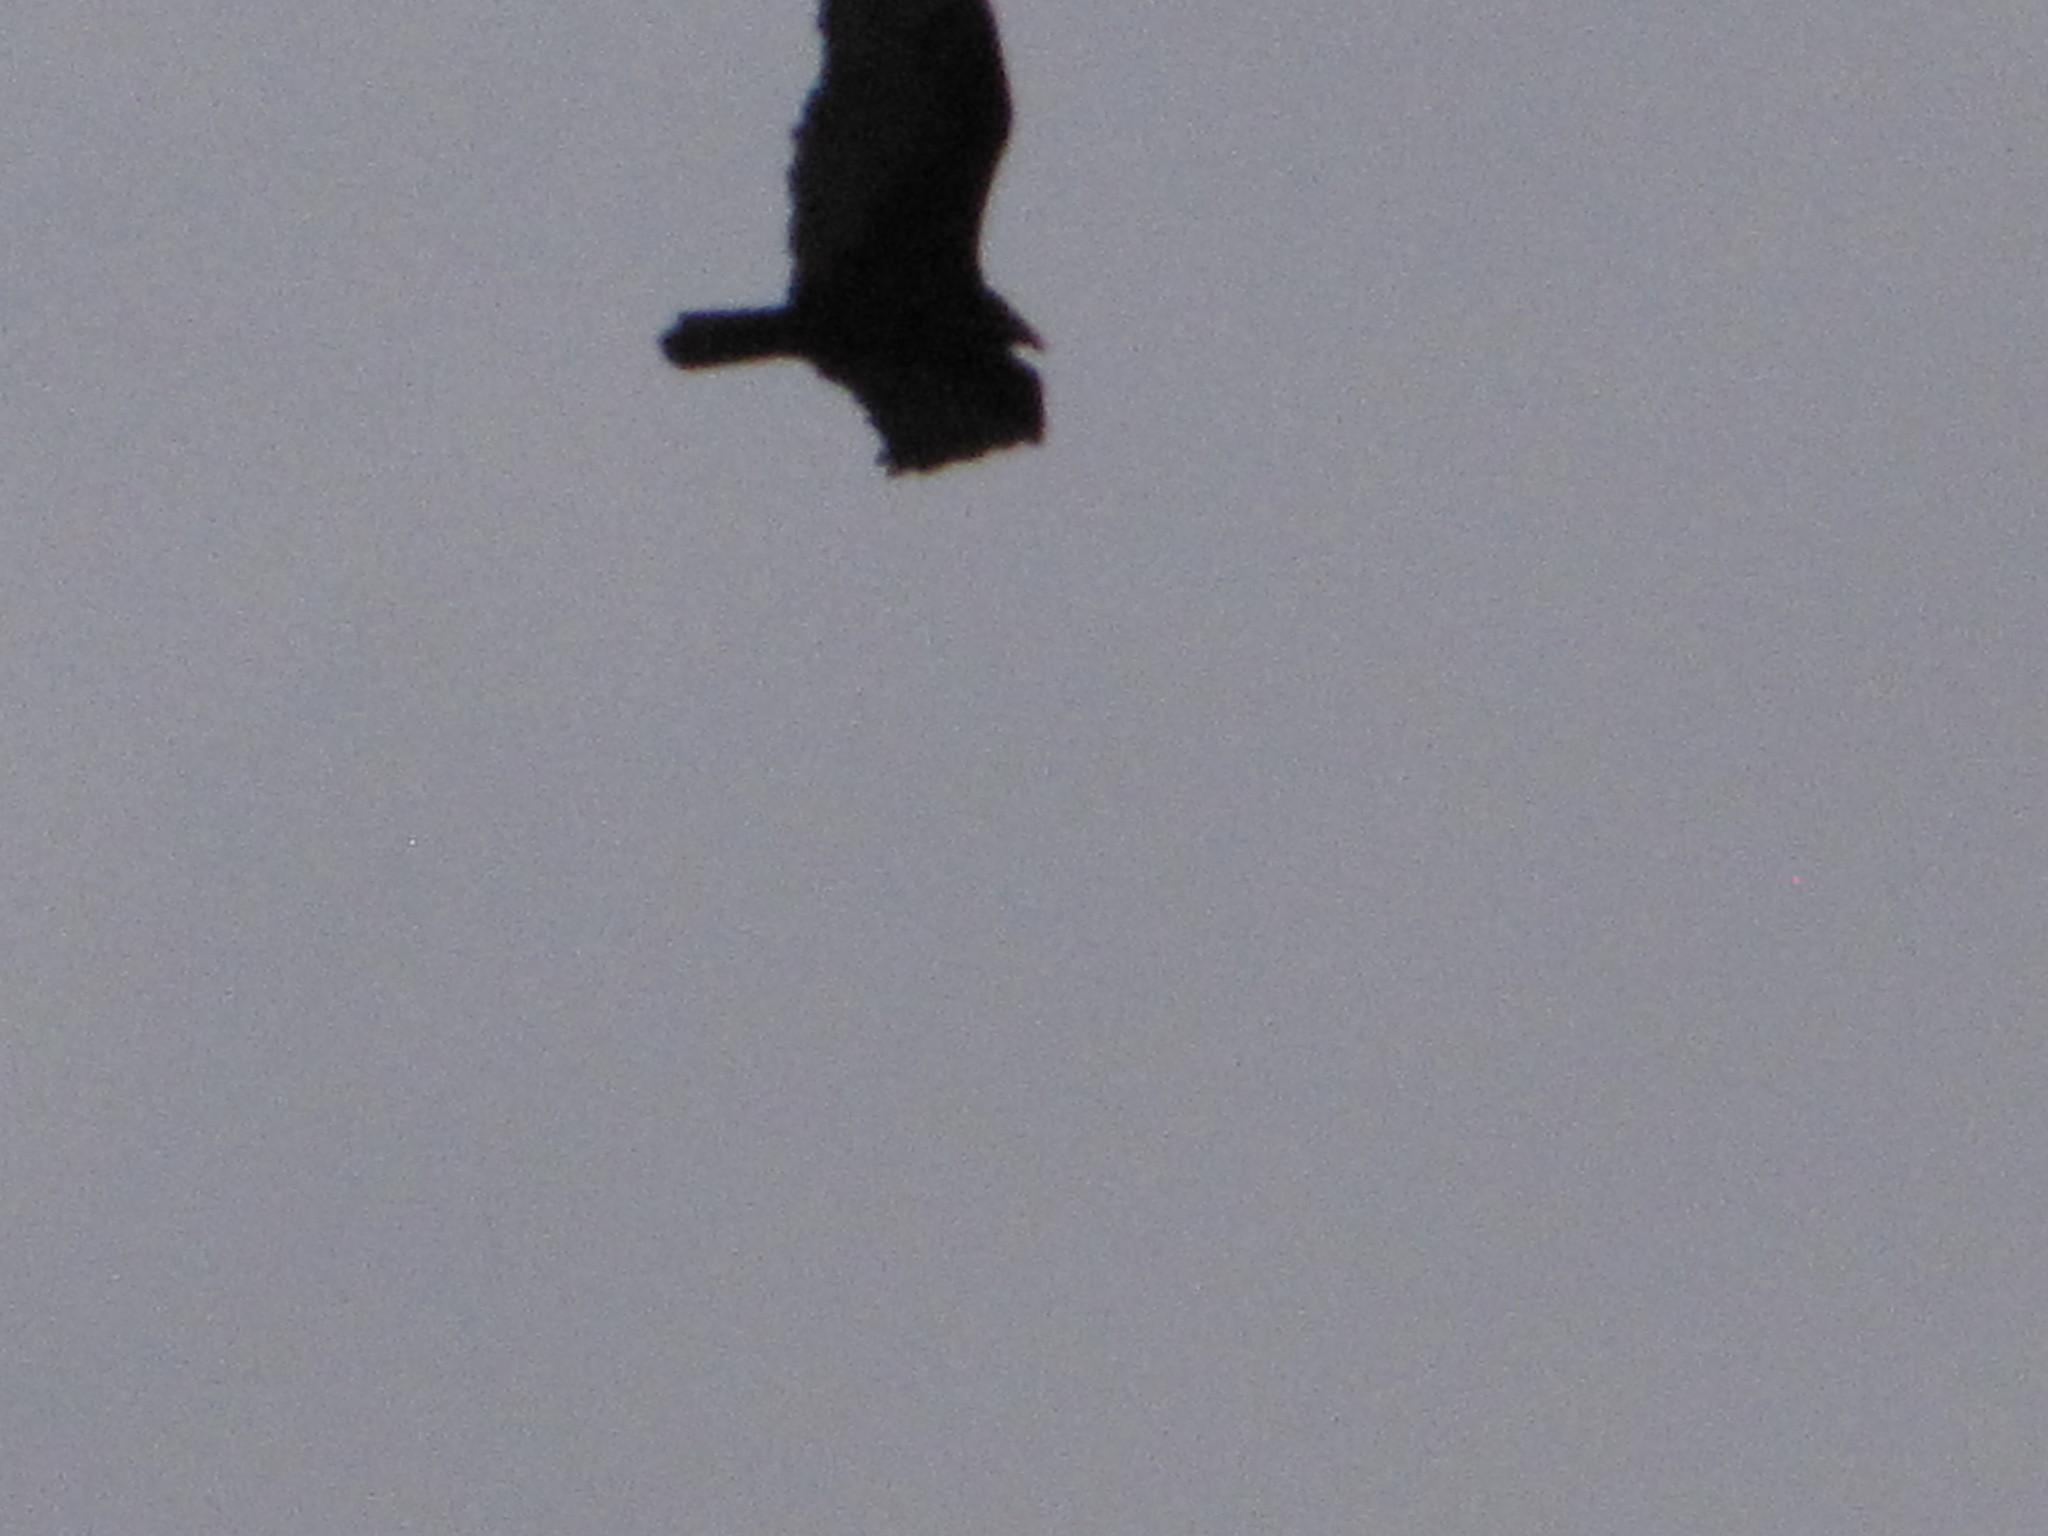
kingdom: Animalia
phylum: Chordata
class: Aves
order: Accipitriformes
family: Cathartidae
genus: Cathartes
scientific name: Cathartes aura
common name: Turkey vulture
